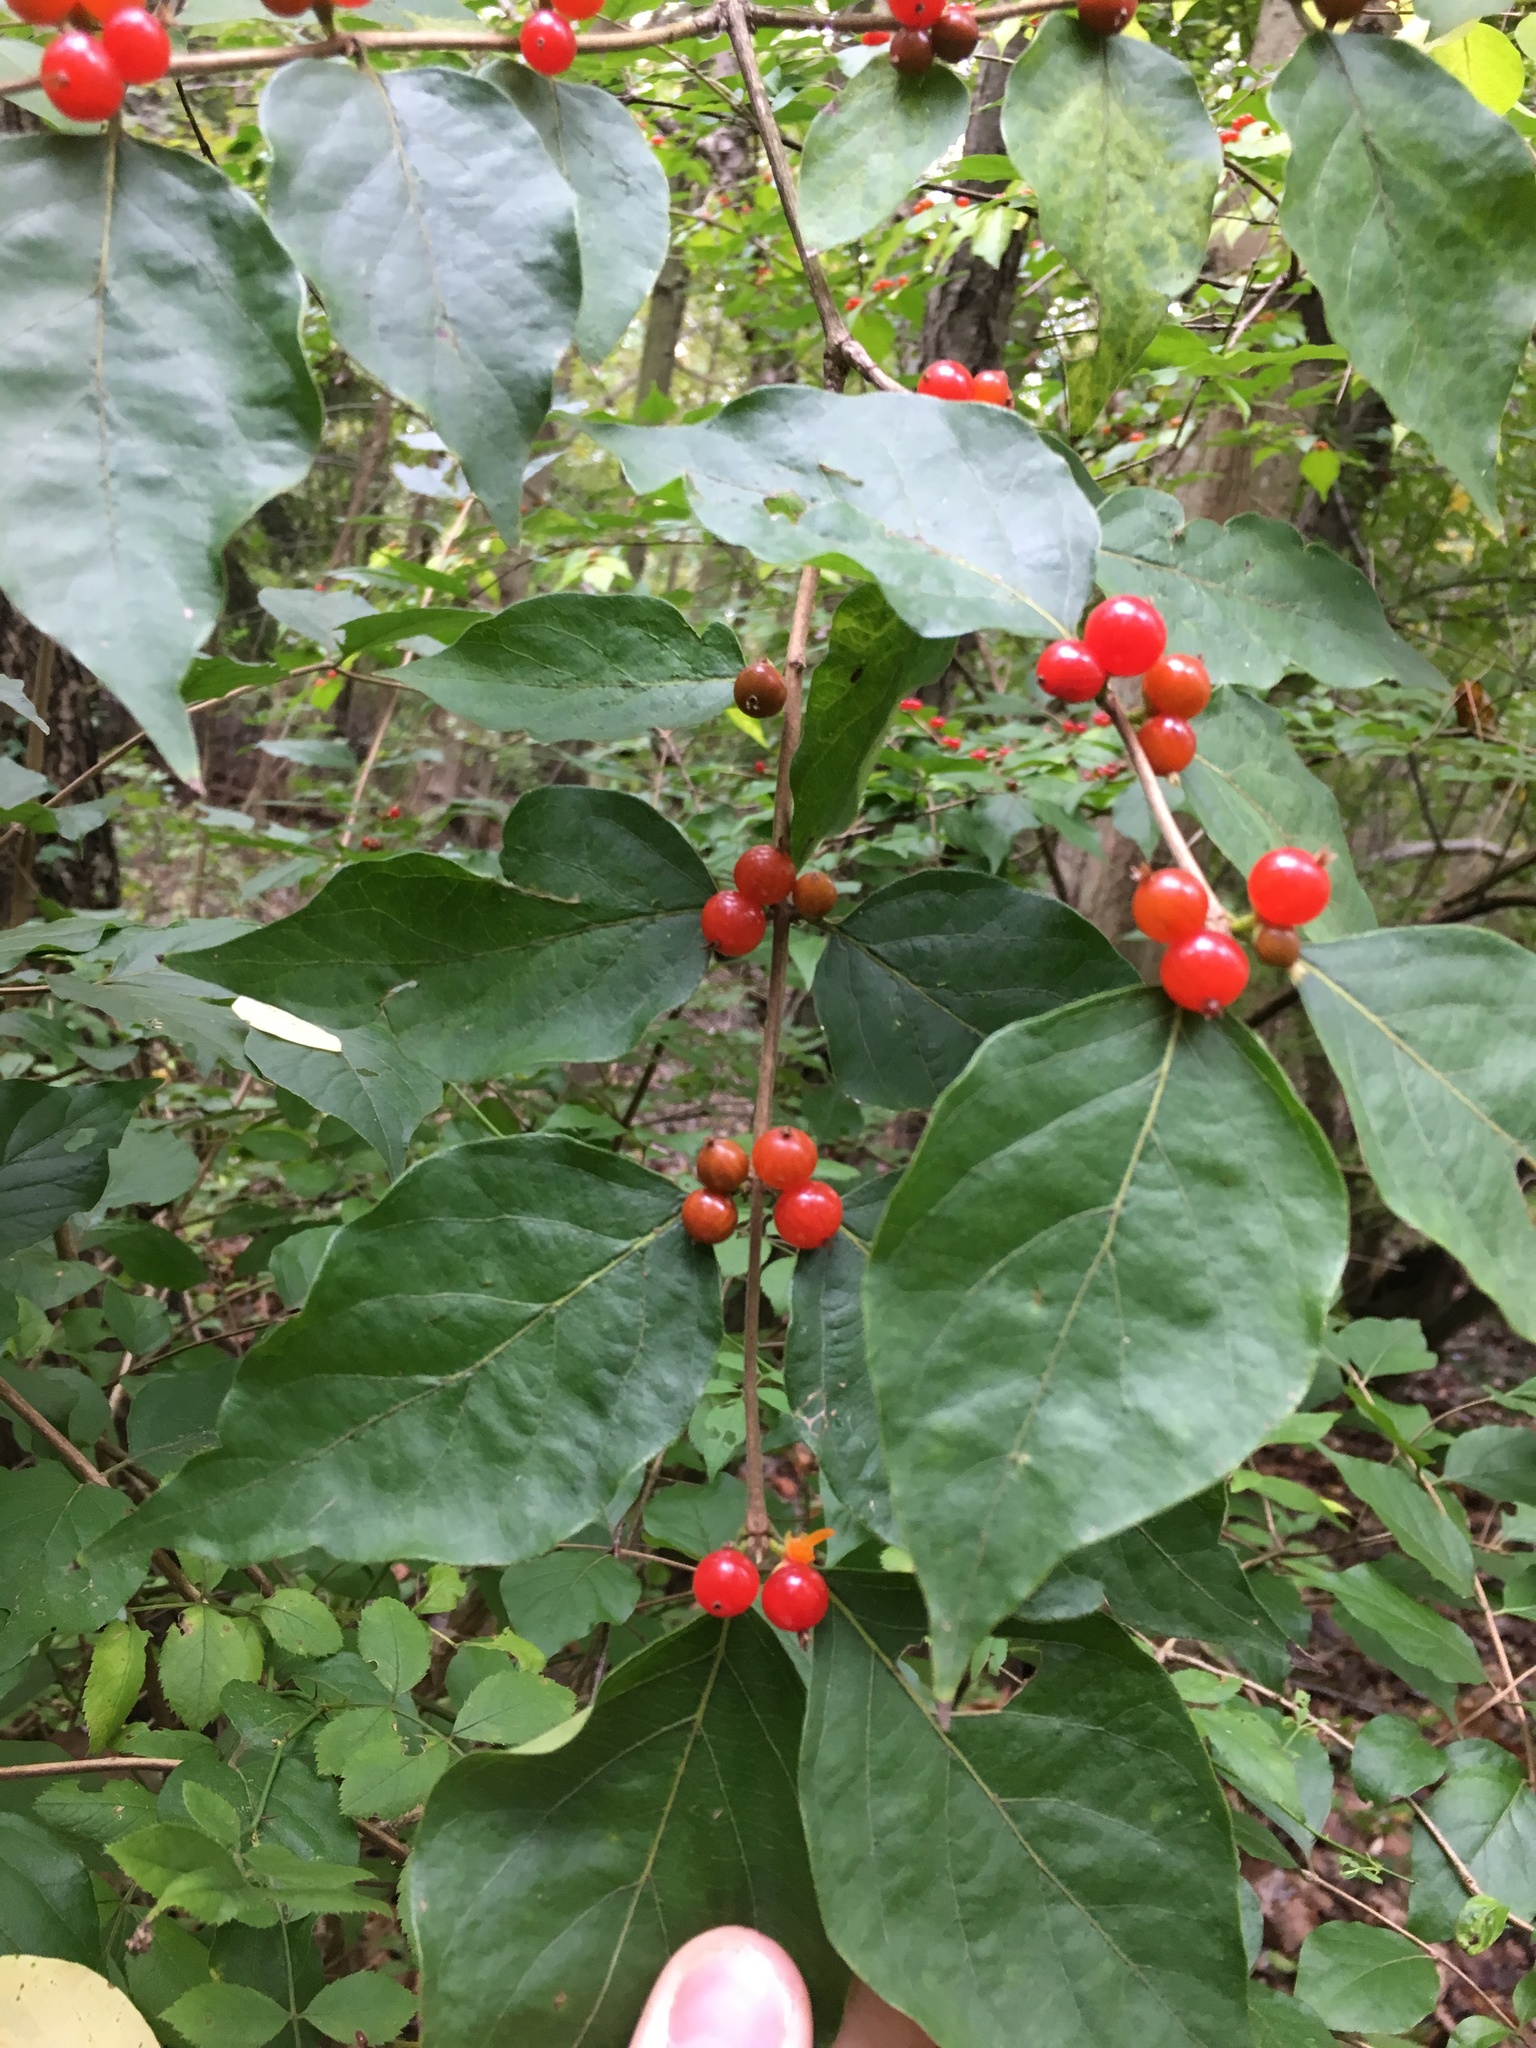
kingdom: Plantae
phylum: Tracheophyta
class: Magnoliopsida
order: Dipsacales
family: Caprifoliaceae
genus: Lonicera
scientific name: Lonicera maackii
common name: Amur honeysuckle
